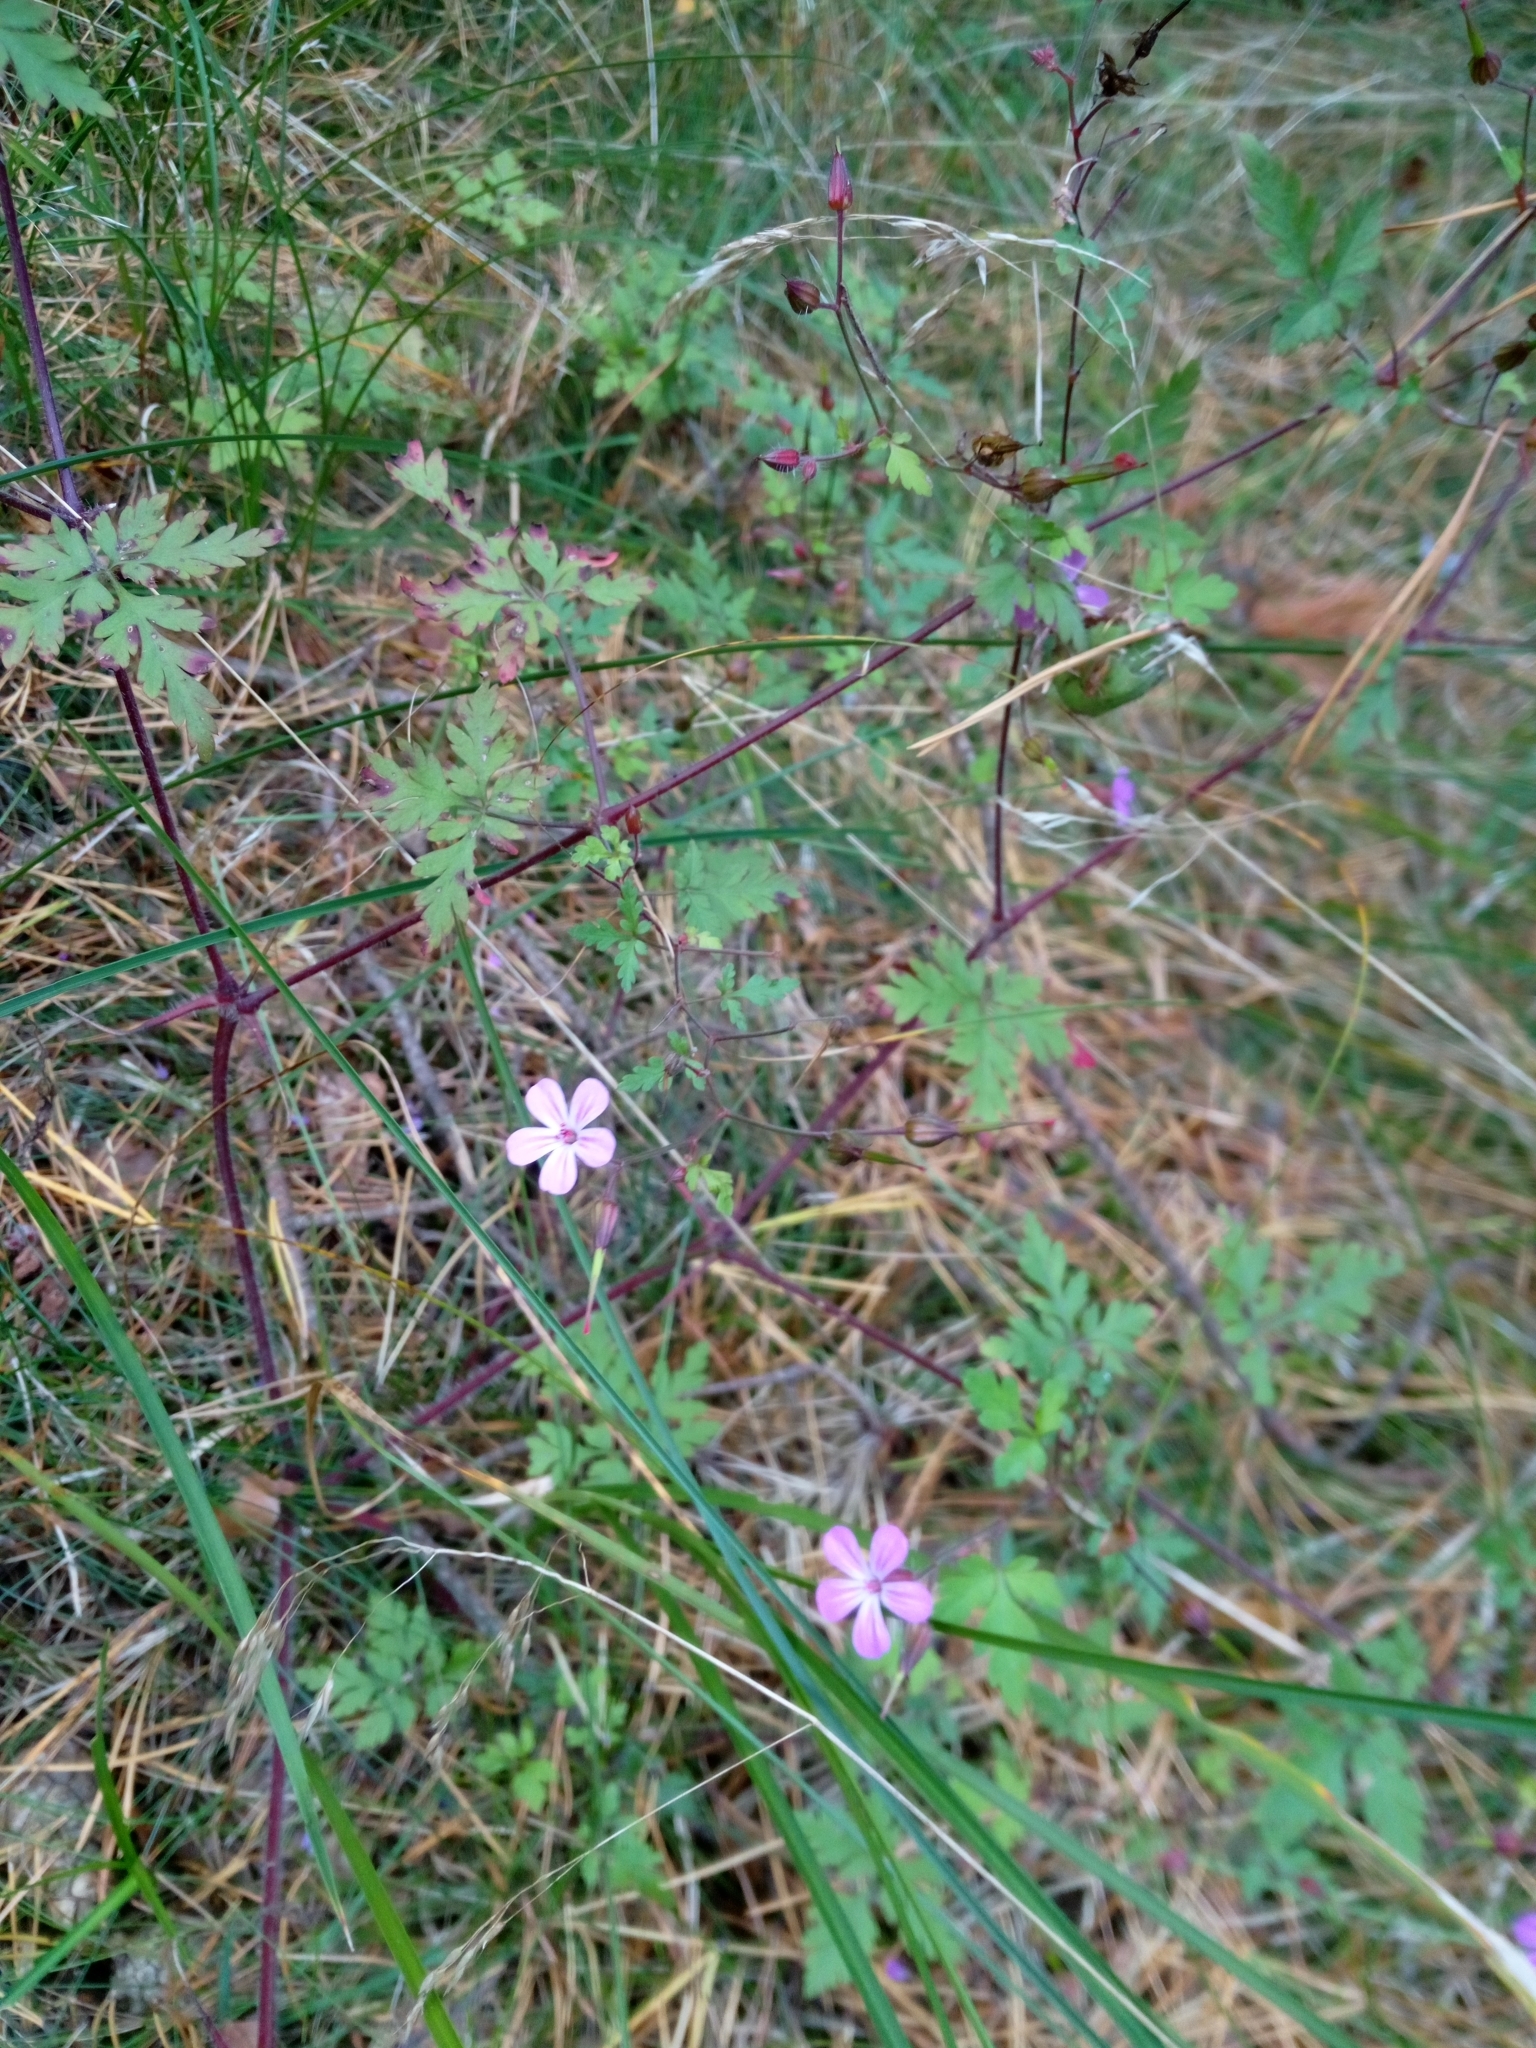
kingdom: Plantae
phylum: Tracheophyta
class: Magnoliopsida
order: Geraniales
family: Geraniaceae
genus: Geranium
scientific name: Geranium robertianum
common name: Herb-robert
